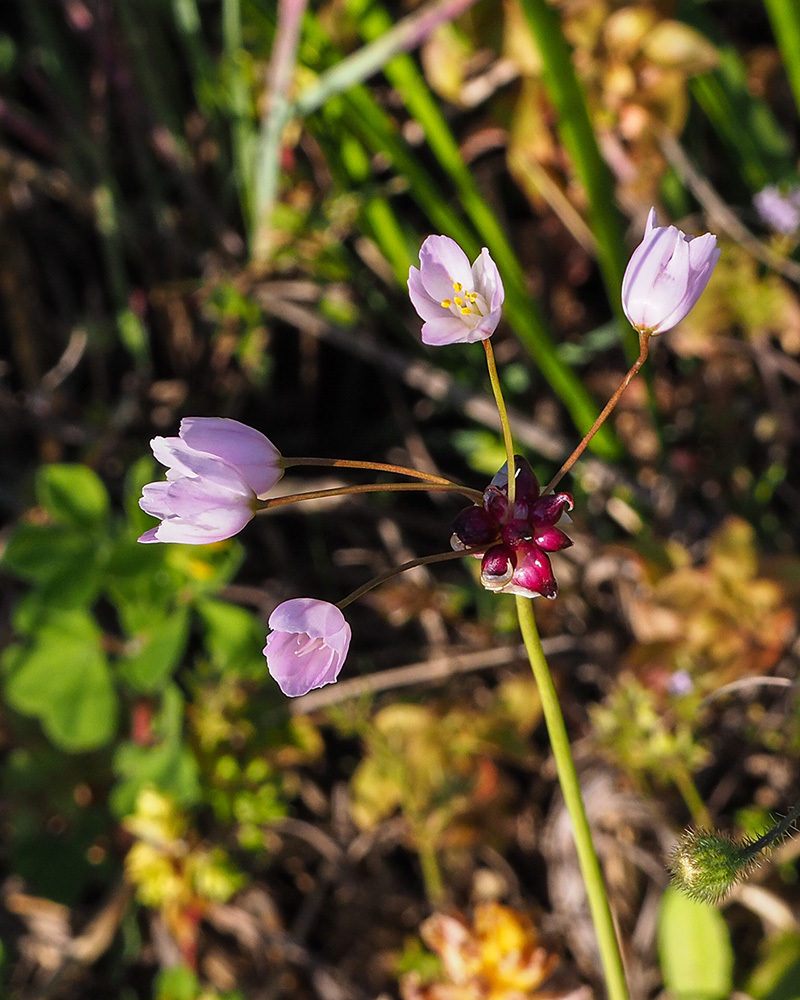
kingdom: Plantae
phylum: Tracheophyta
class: Liliopsida
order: Asparagales
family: Amaryllidaceae
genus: Allium
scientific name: Allium roseum
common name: Rosy garlic
